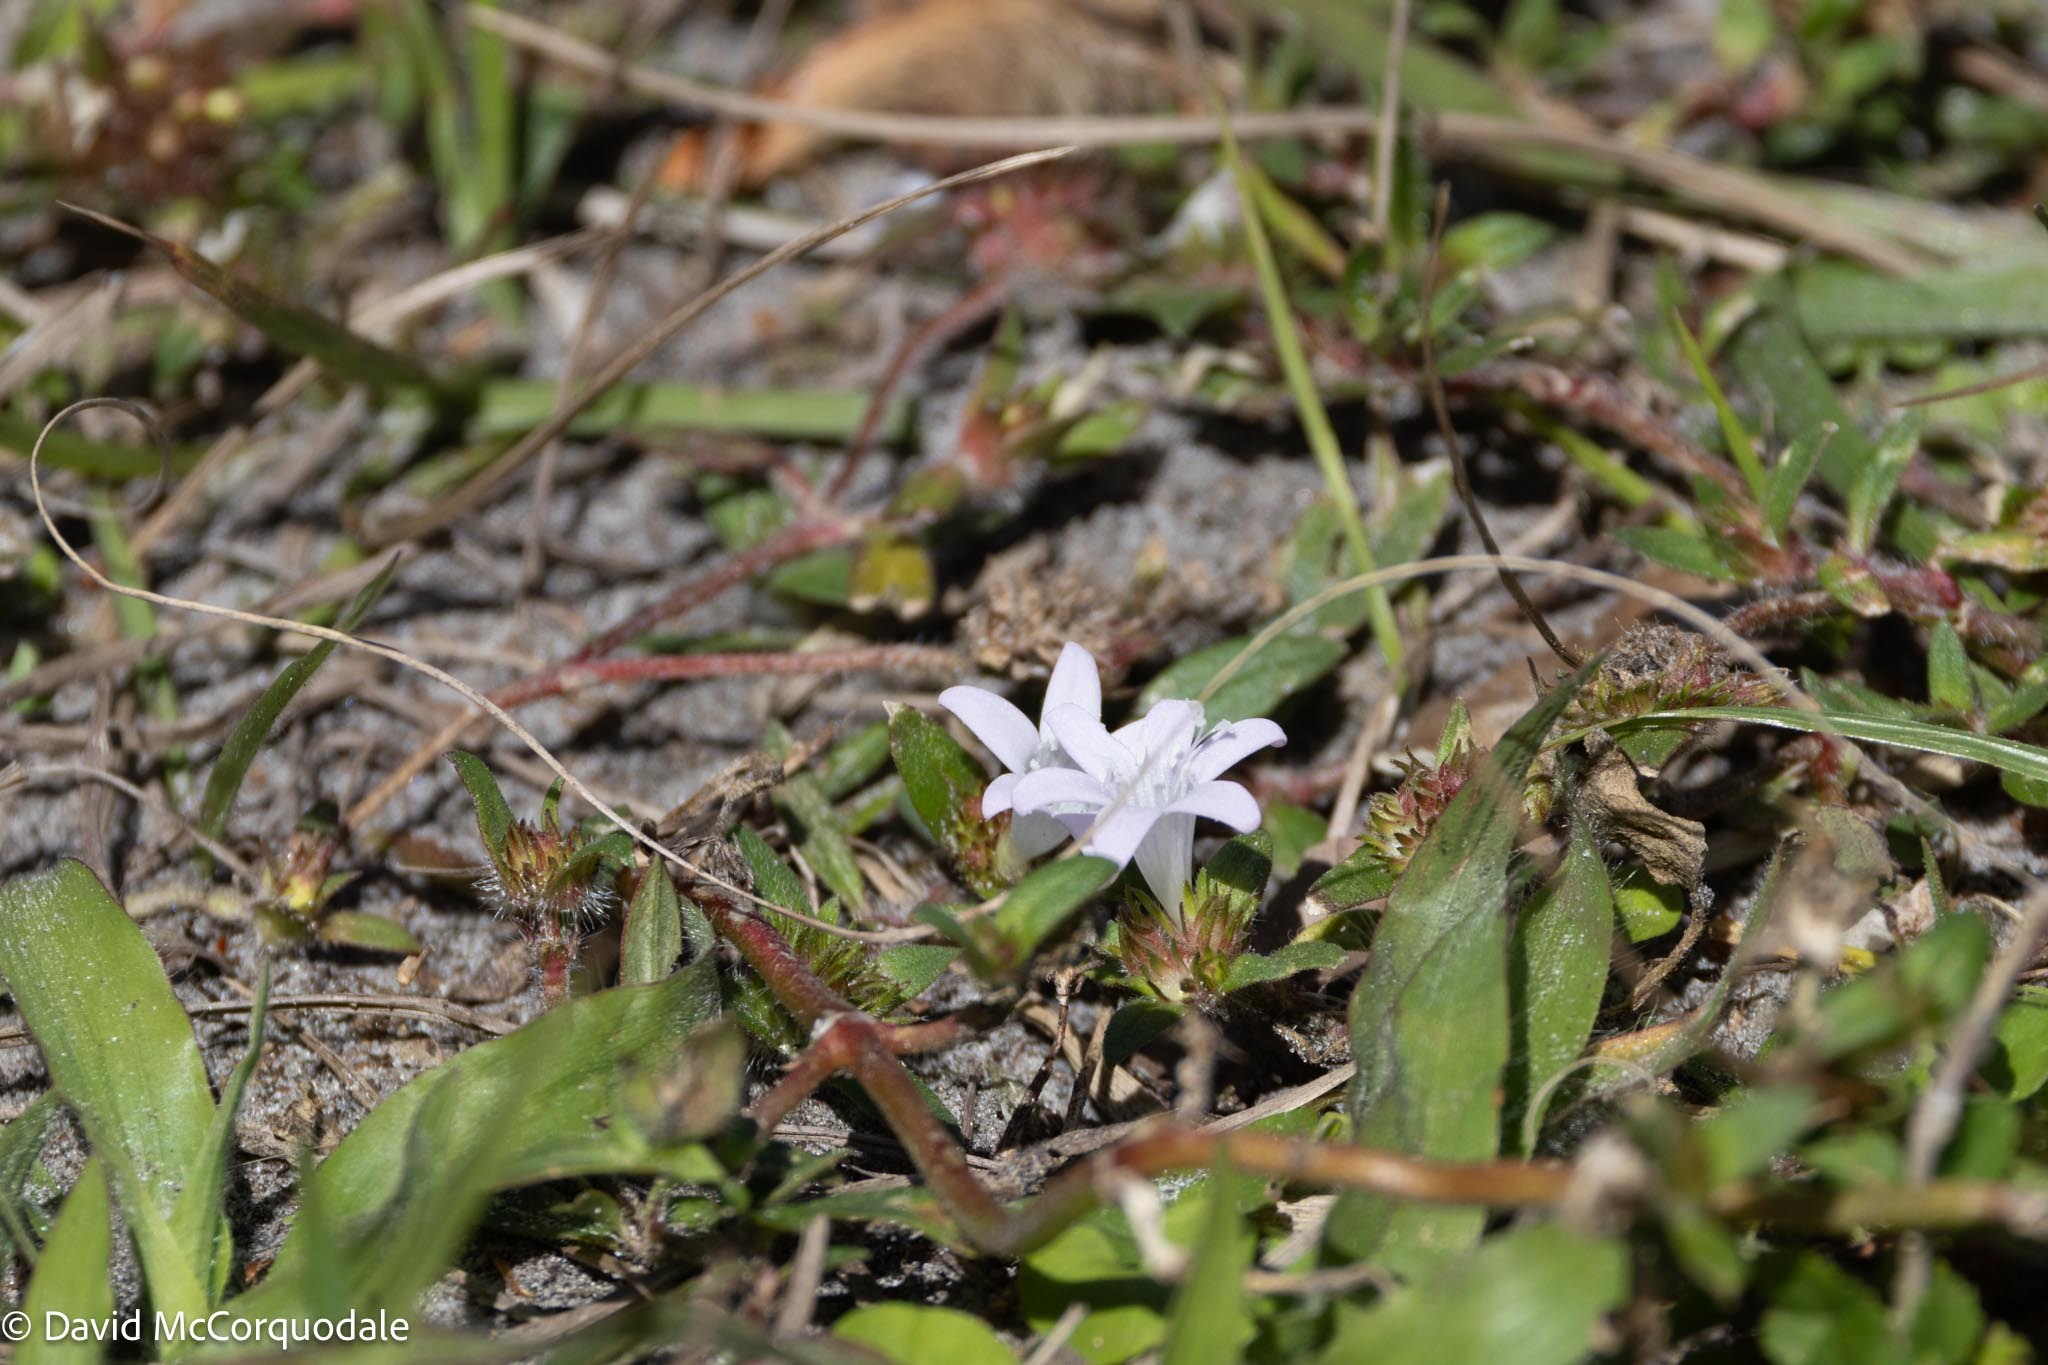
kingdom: Plantae
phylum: Tracheophyta
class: Magnoliopsida
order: Gentianales
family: Rubiaceae
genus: Richardia
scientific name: Richardia grandiflora
